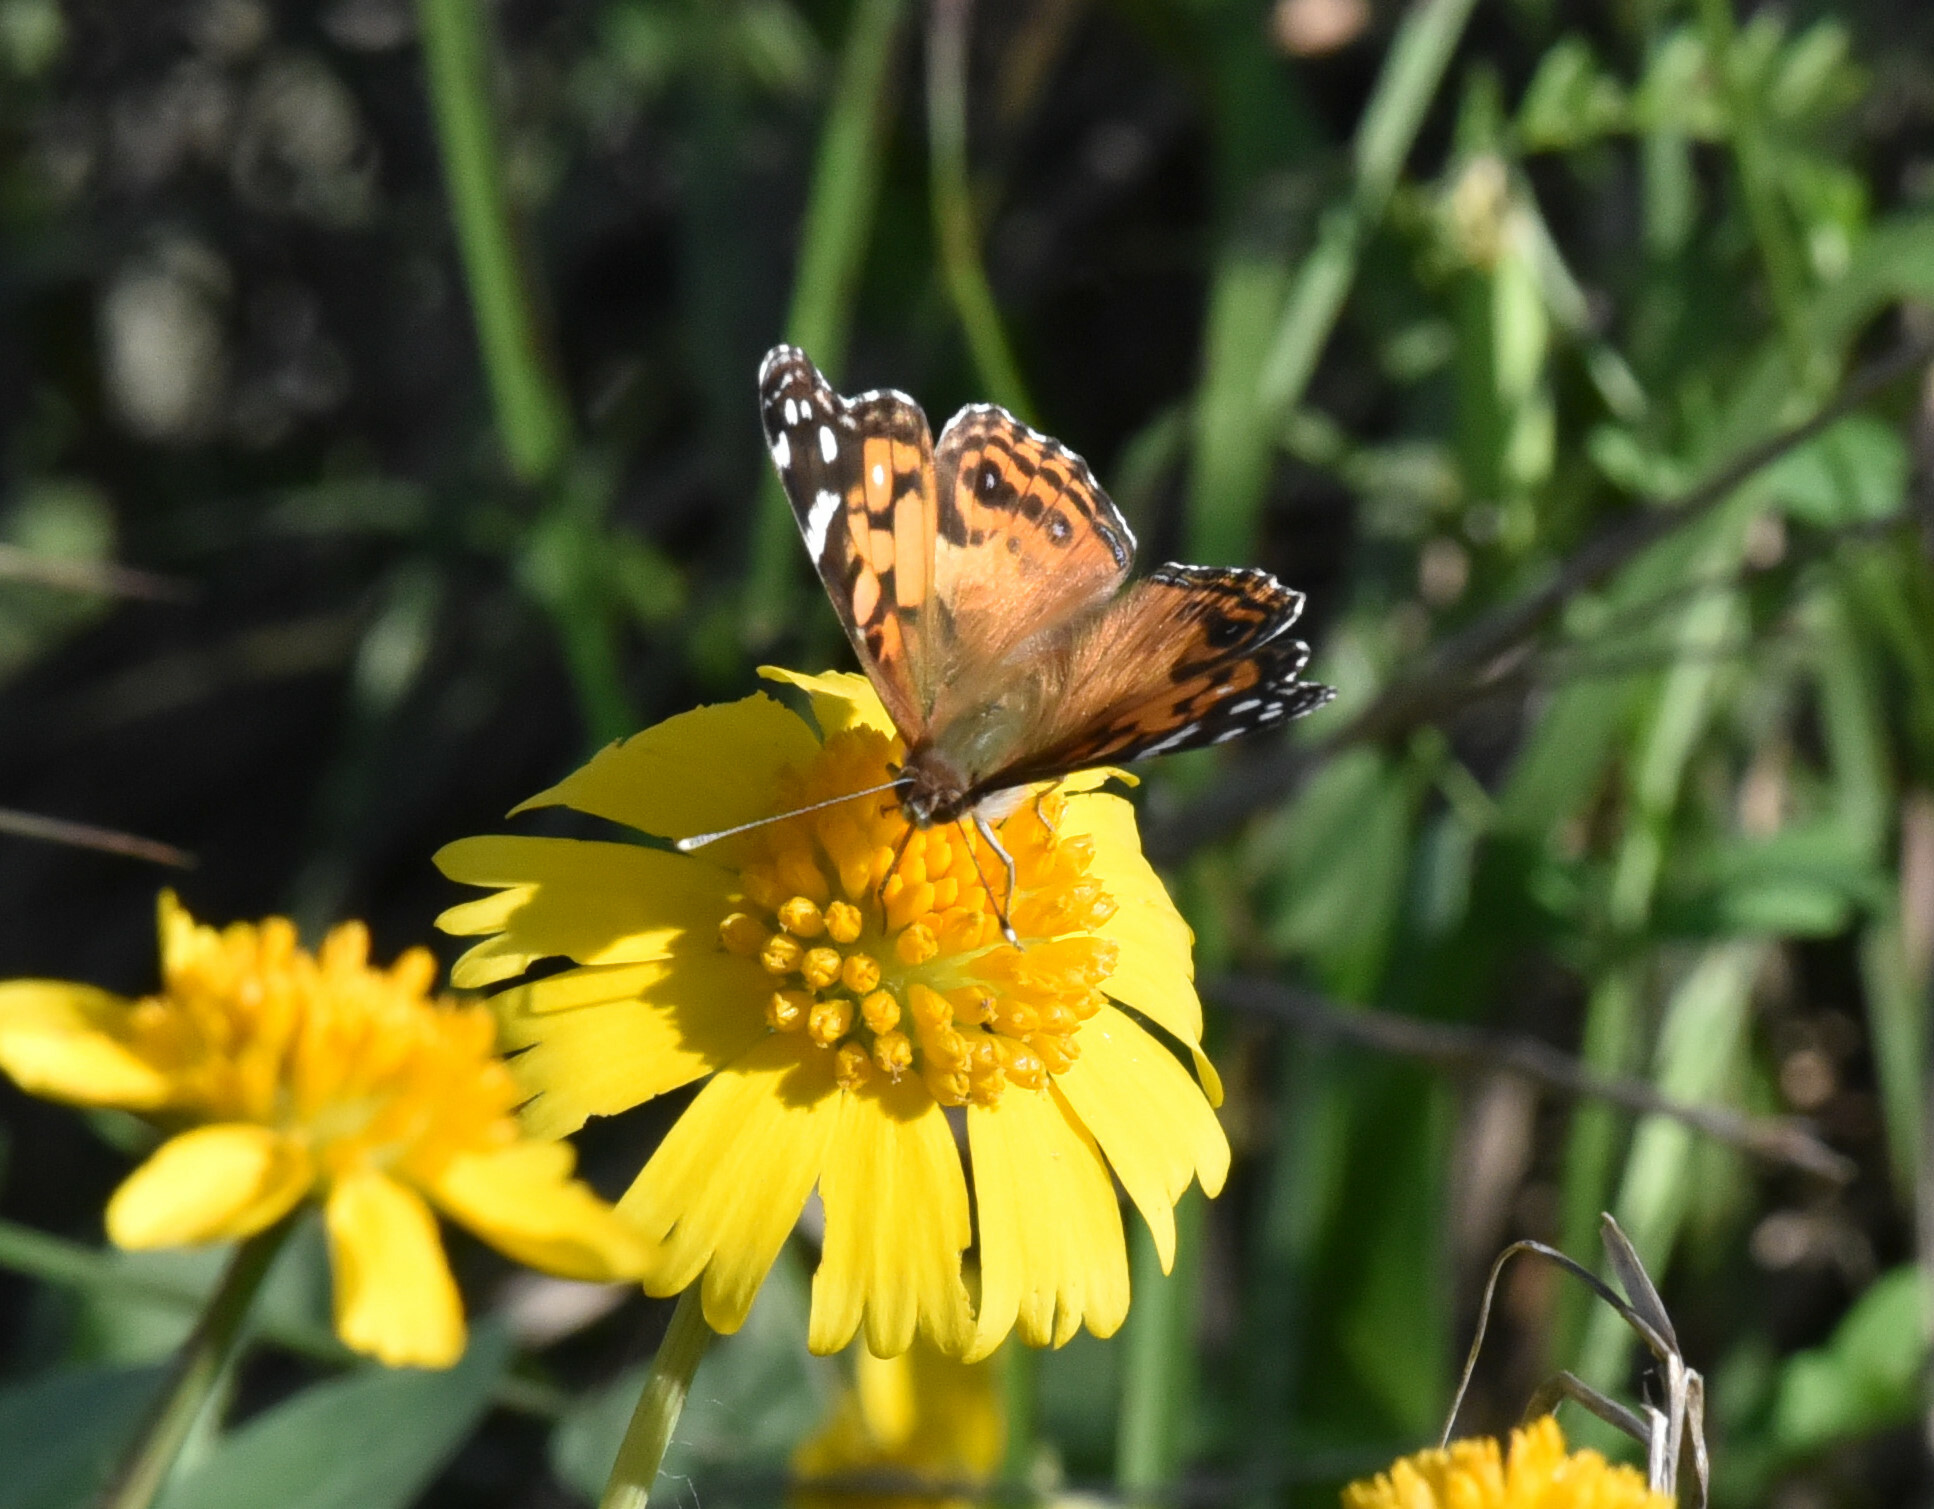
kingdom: Animalia
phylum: Arthropoda
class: Insecta
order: Lepidoptera
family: Nymphalidae
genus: Vanessa
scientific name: Vanessa virginiensis
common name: American lady
